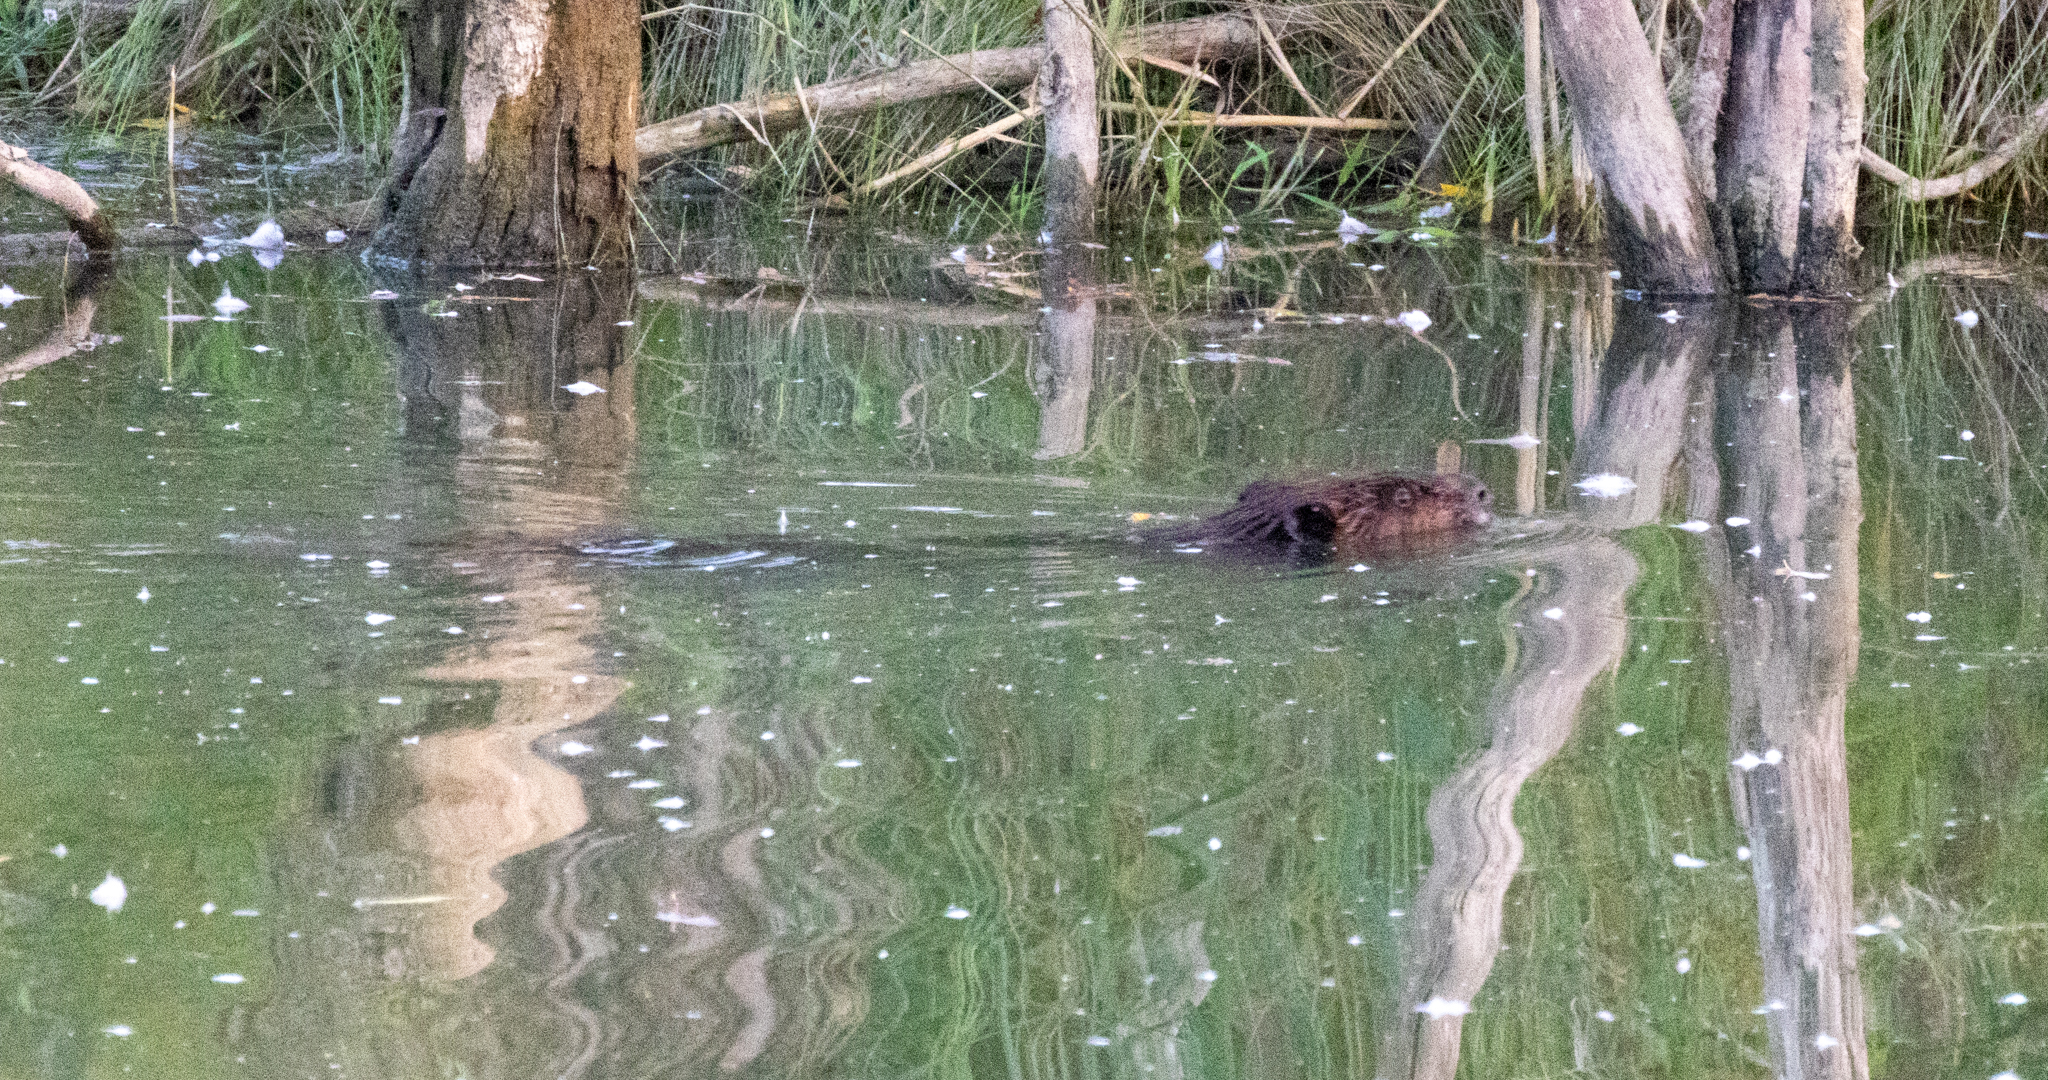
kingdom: Animalia
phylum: Chordata
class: Mammalia
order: Rodentia
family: Castoridae
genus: Castor
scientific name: Castor canadensis
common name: American beaver
